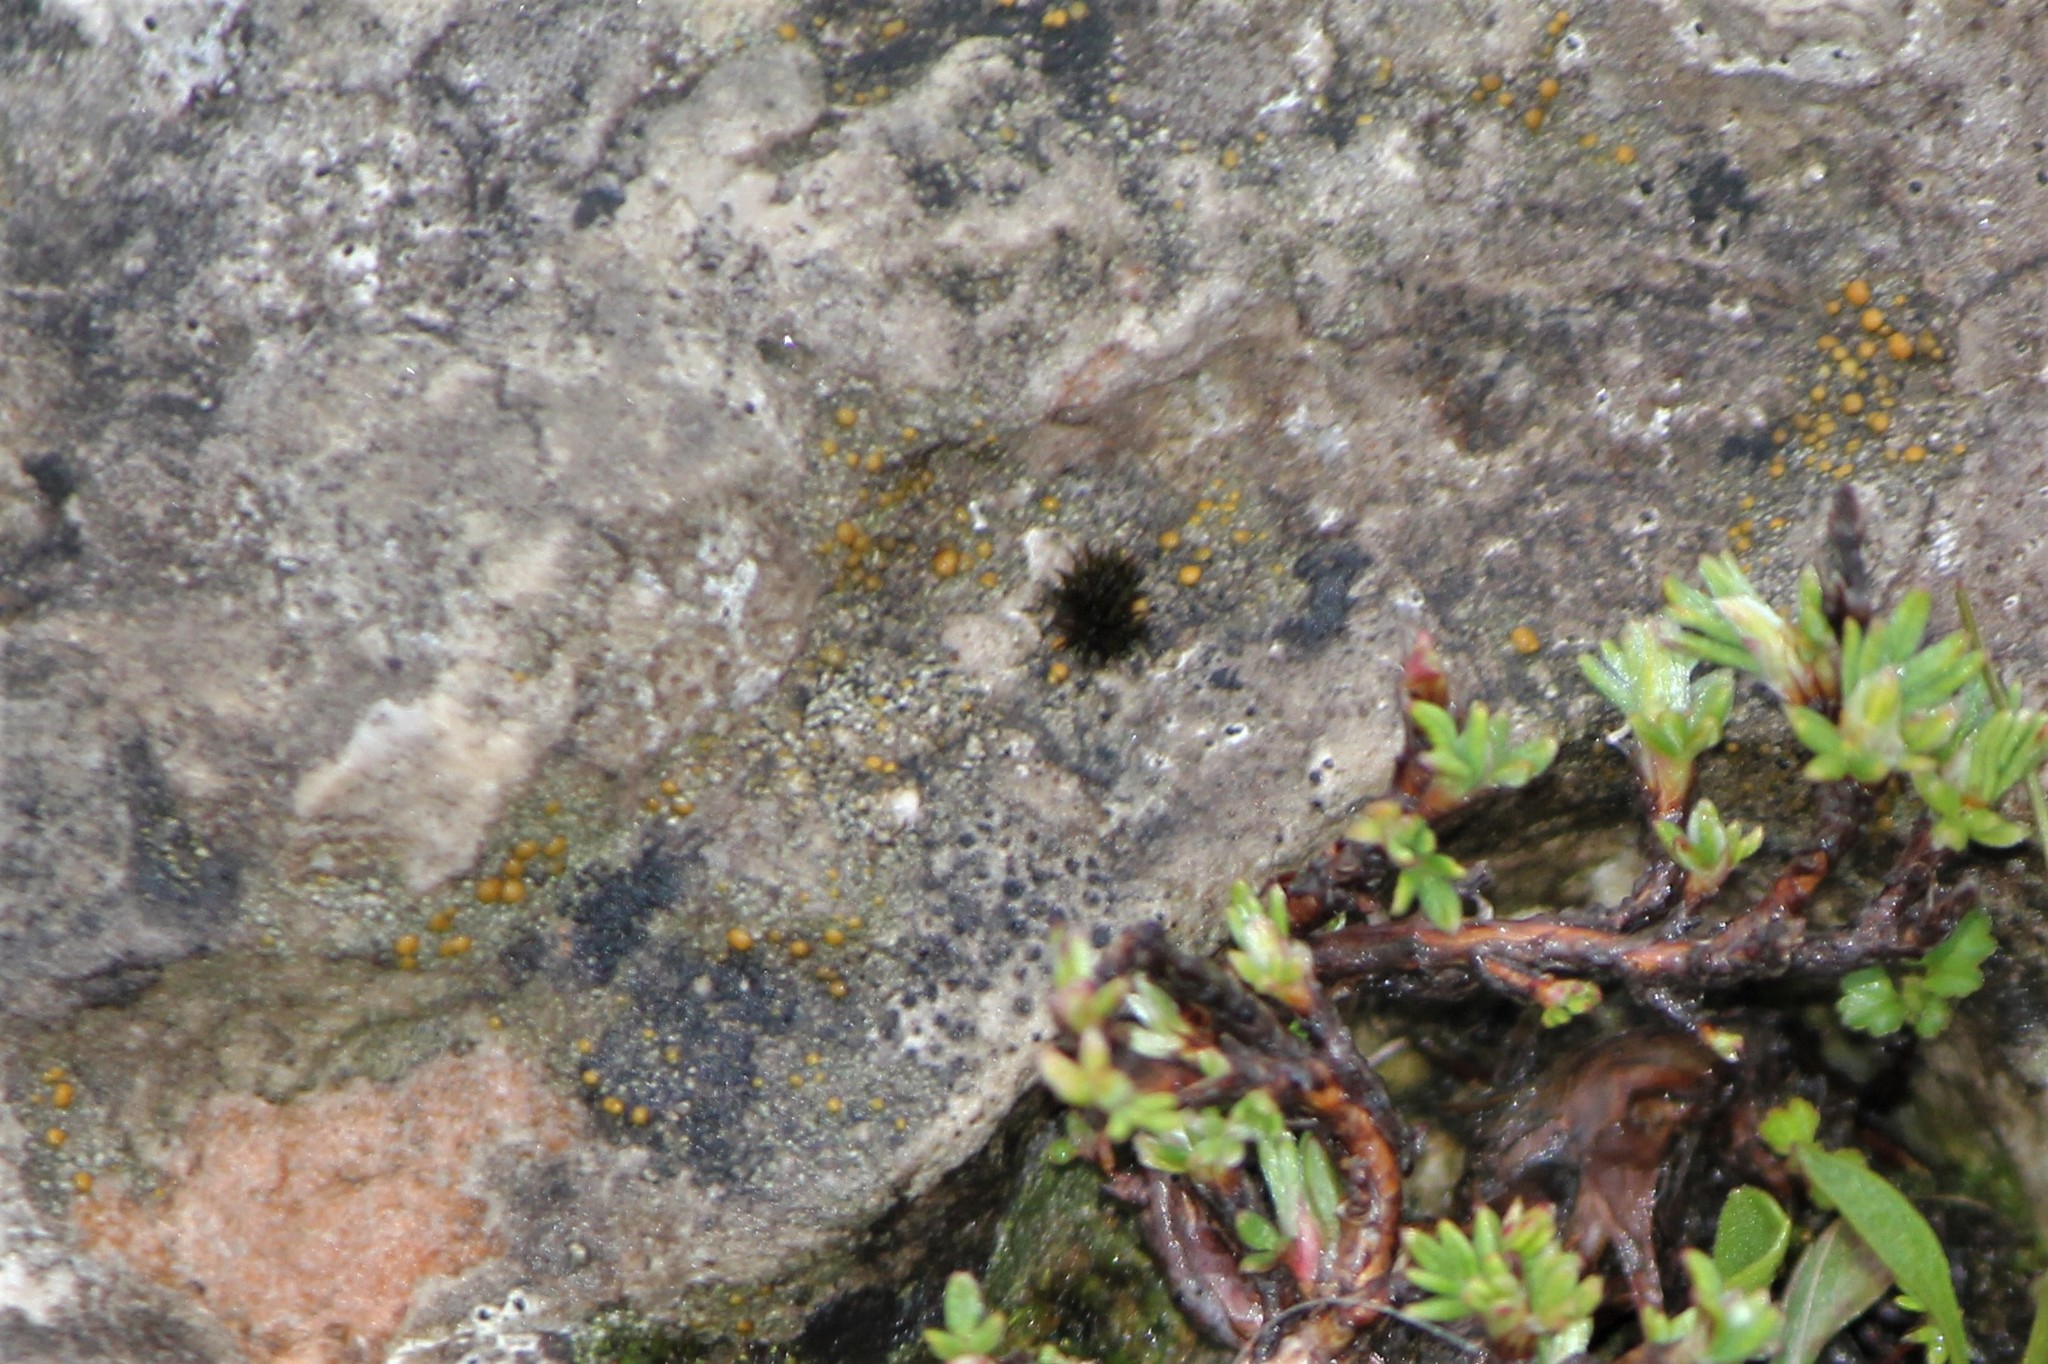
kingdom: Fungi
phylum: Ascomycota
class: Lecanoromycetes
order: Lecanorales
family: Psoraceae
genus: Protoblastenia
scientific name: Protoblastenia rupestris
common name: Chewing gum lichen
